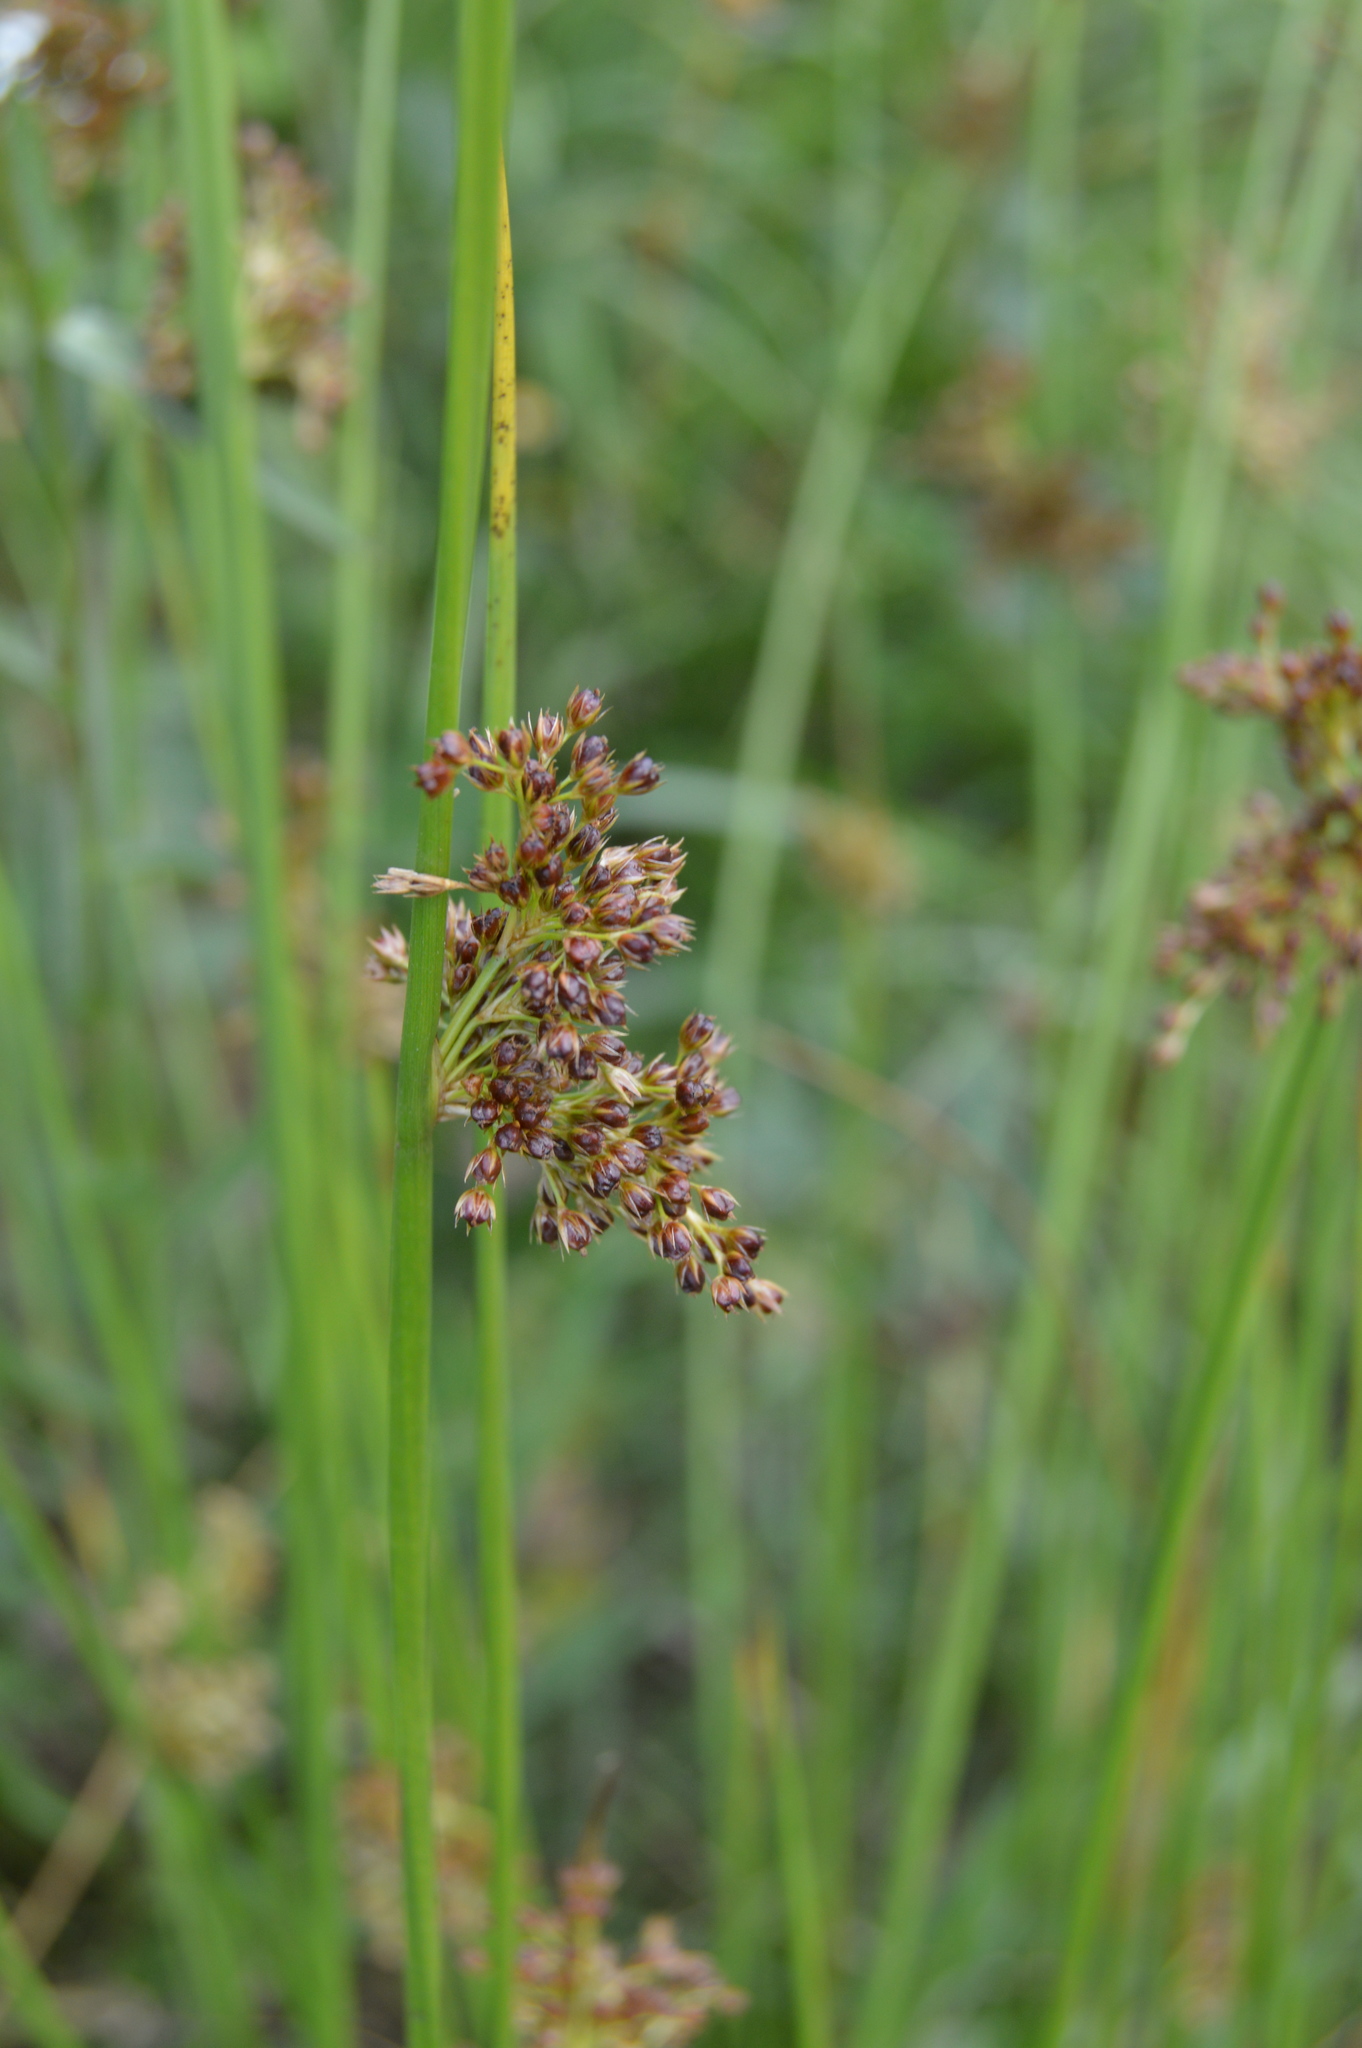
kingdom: Plantae
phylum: Tracheophyta
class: Liliopsida
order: Poales
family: Juncaceae
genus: Juncus
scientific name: Juncus effusus
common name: Soft rush
